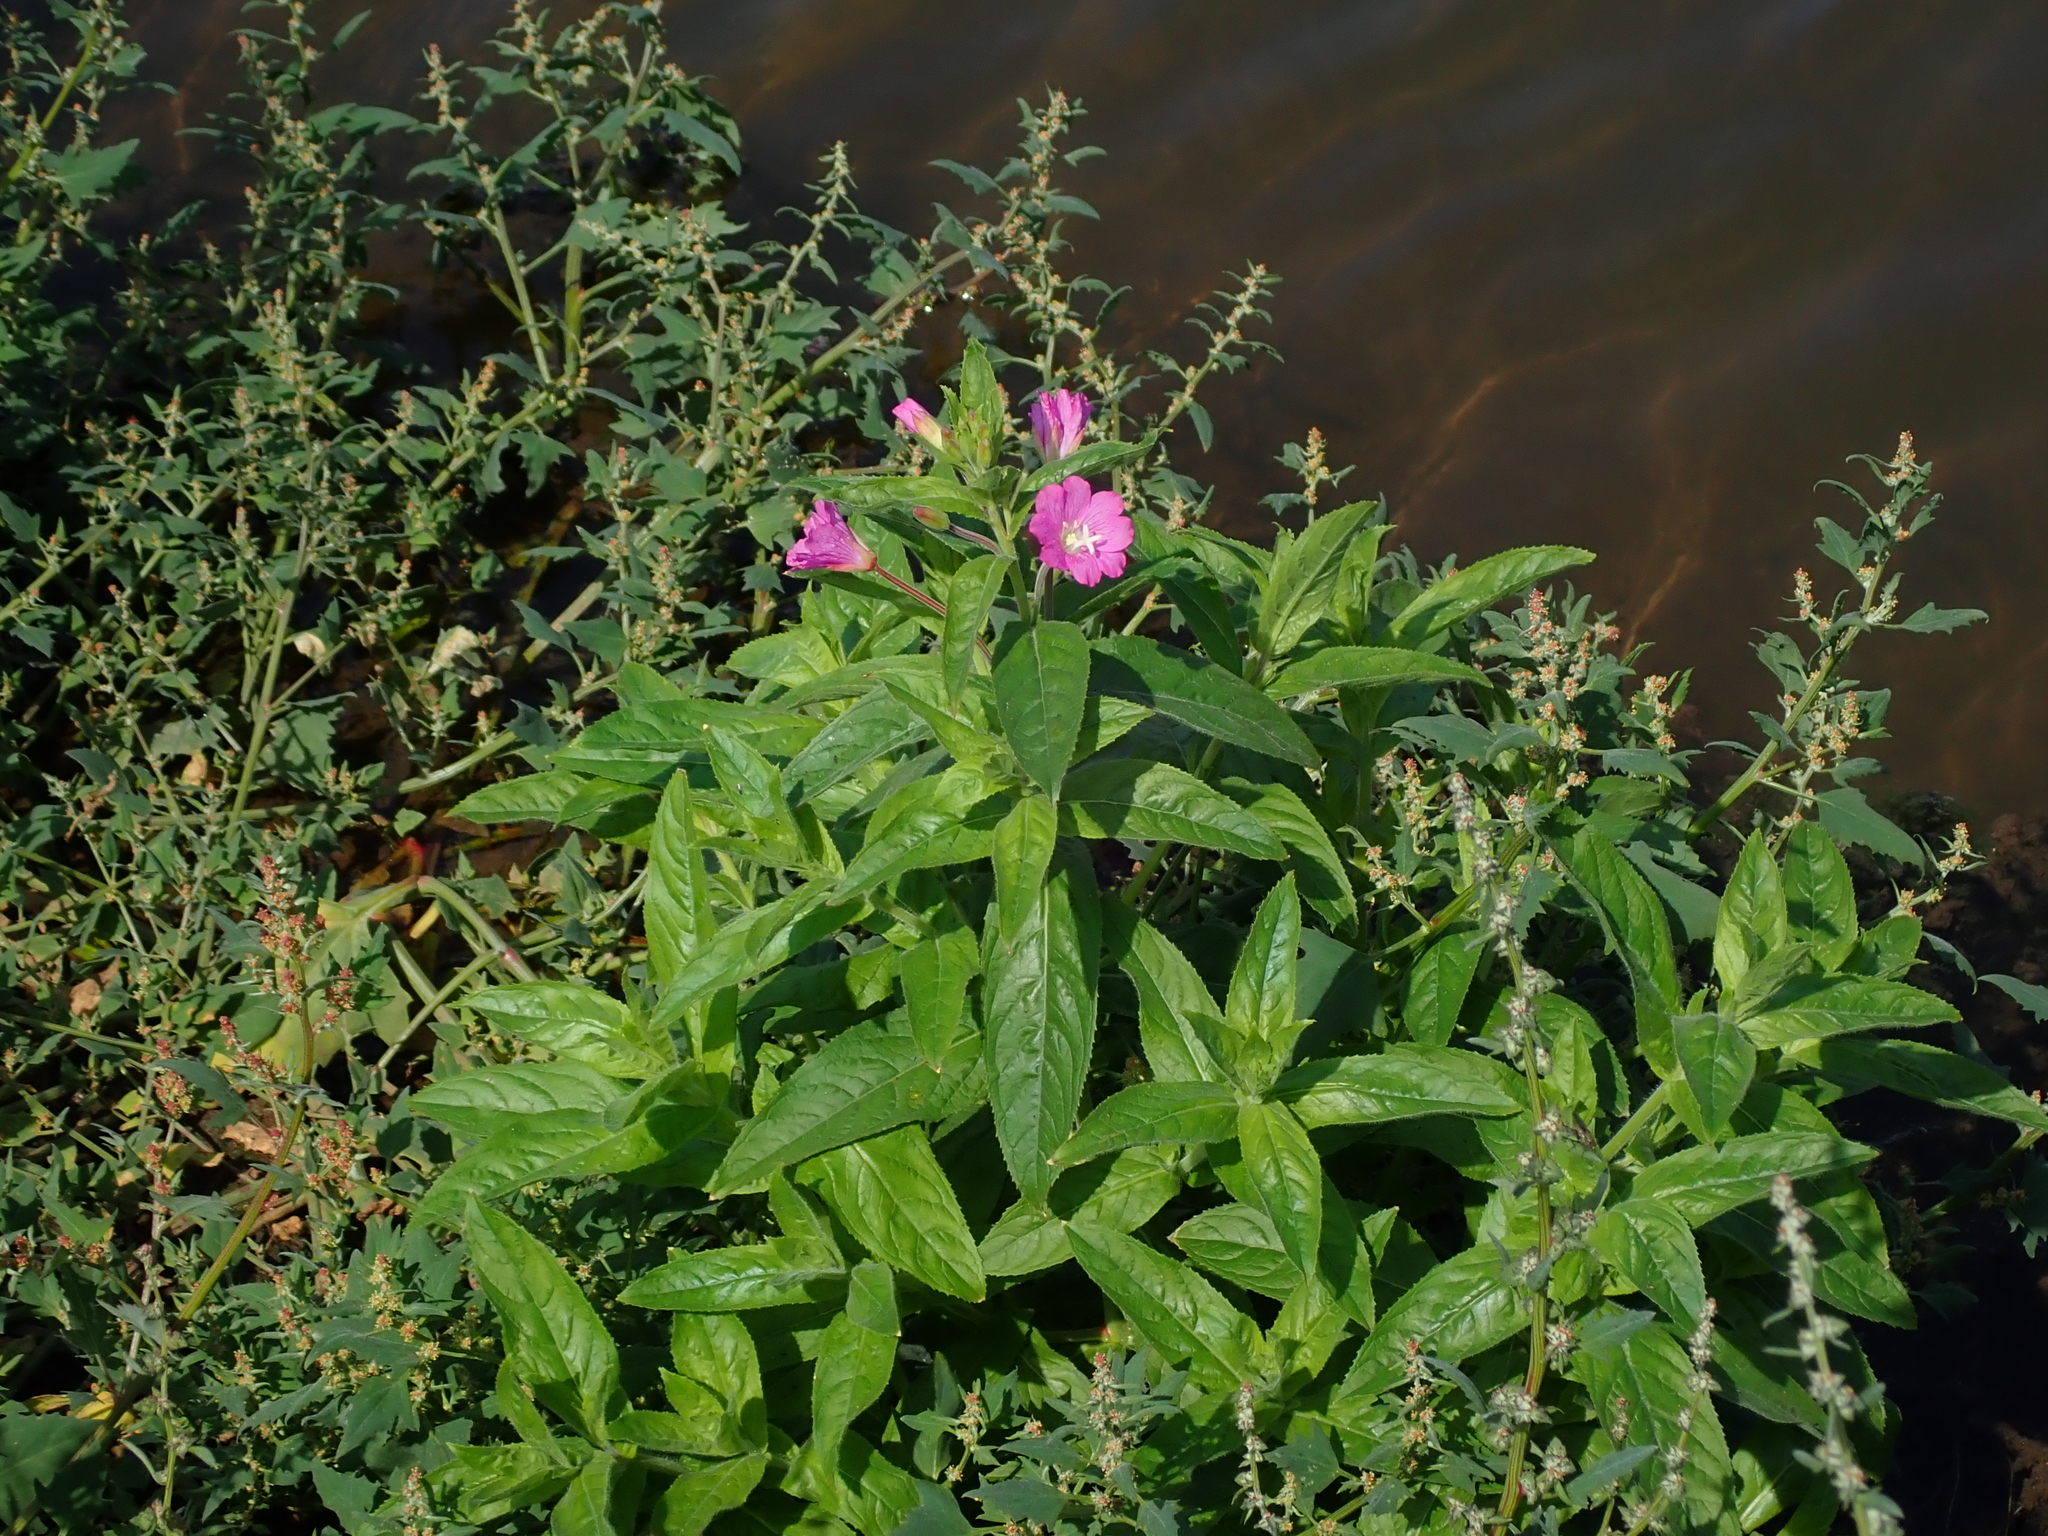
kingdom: Plantae
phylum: Tracheophyta
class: Magnoliopsida
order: Myrtales
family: Onagraceae
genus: Epilobium
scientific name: Epilobium hirsutum
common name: Great willowherb
